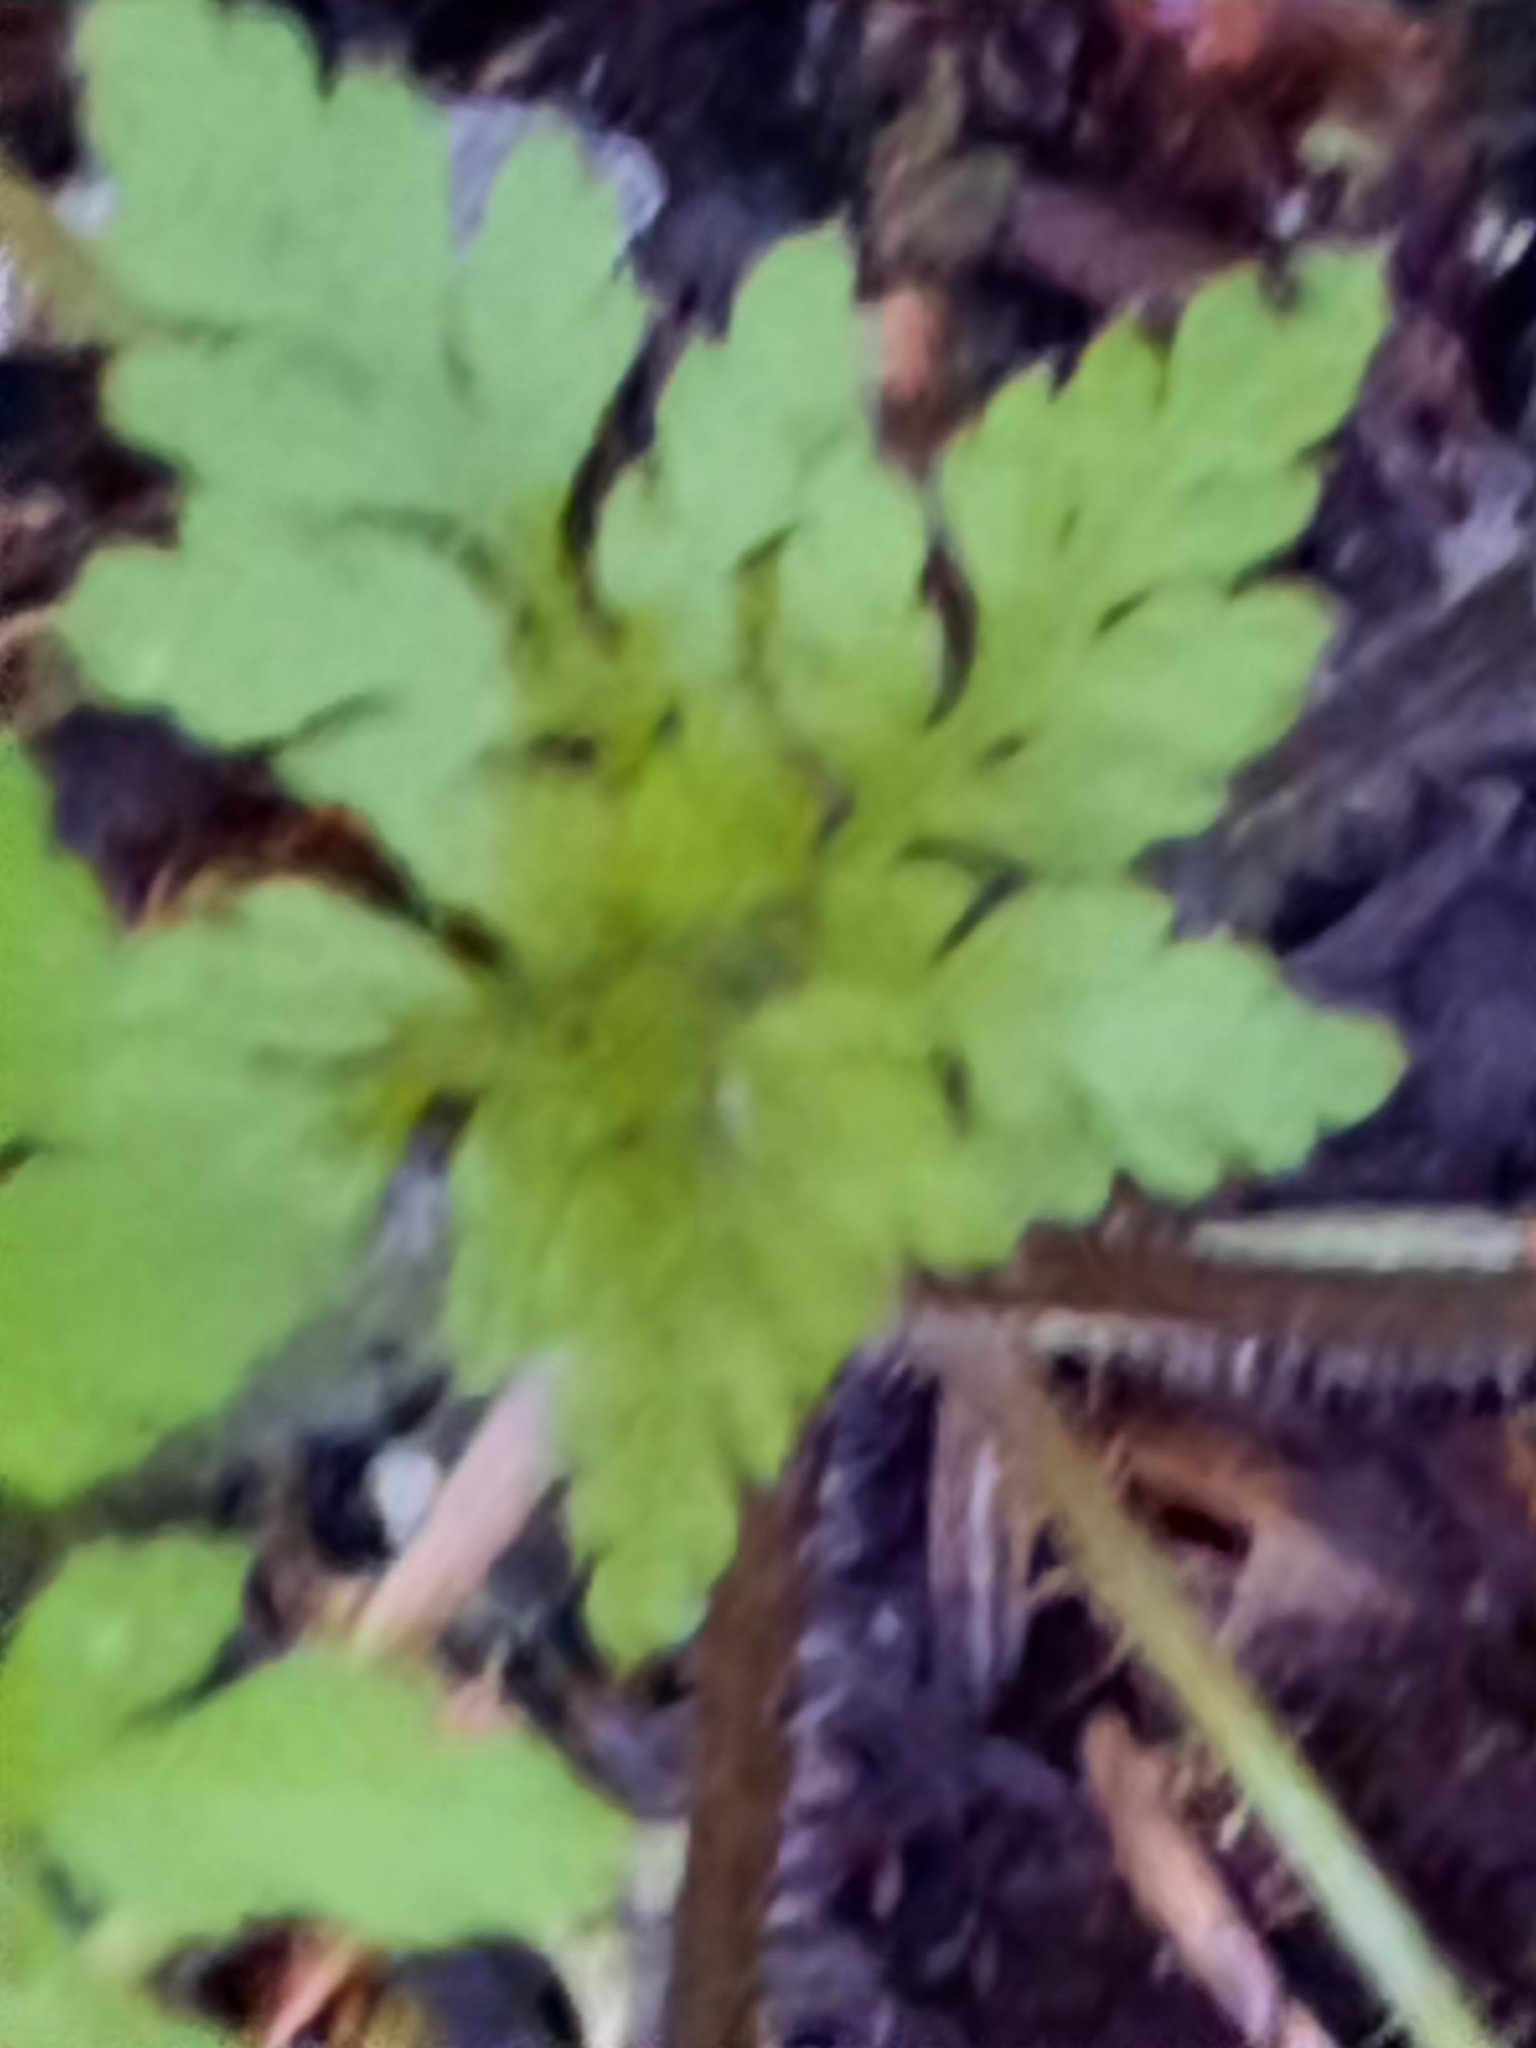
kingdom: Plantae
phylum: Tracheophyta
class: Magnoliopsida
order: Geraniales
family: Geraniaceae
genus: Geranium
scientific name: Geranium robertianum
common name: Herb-robert
